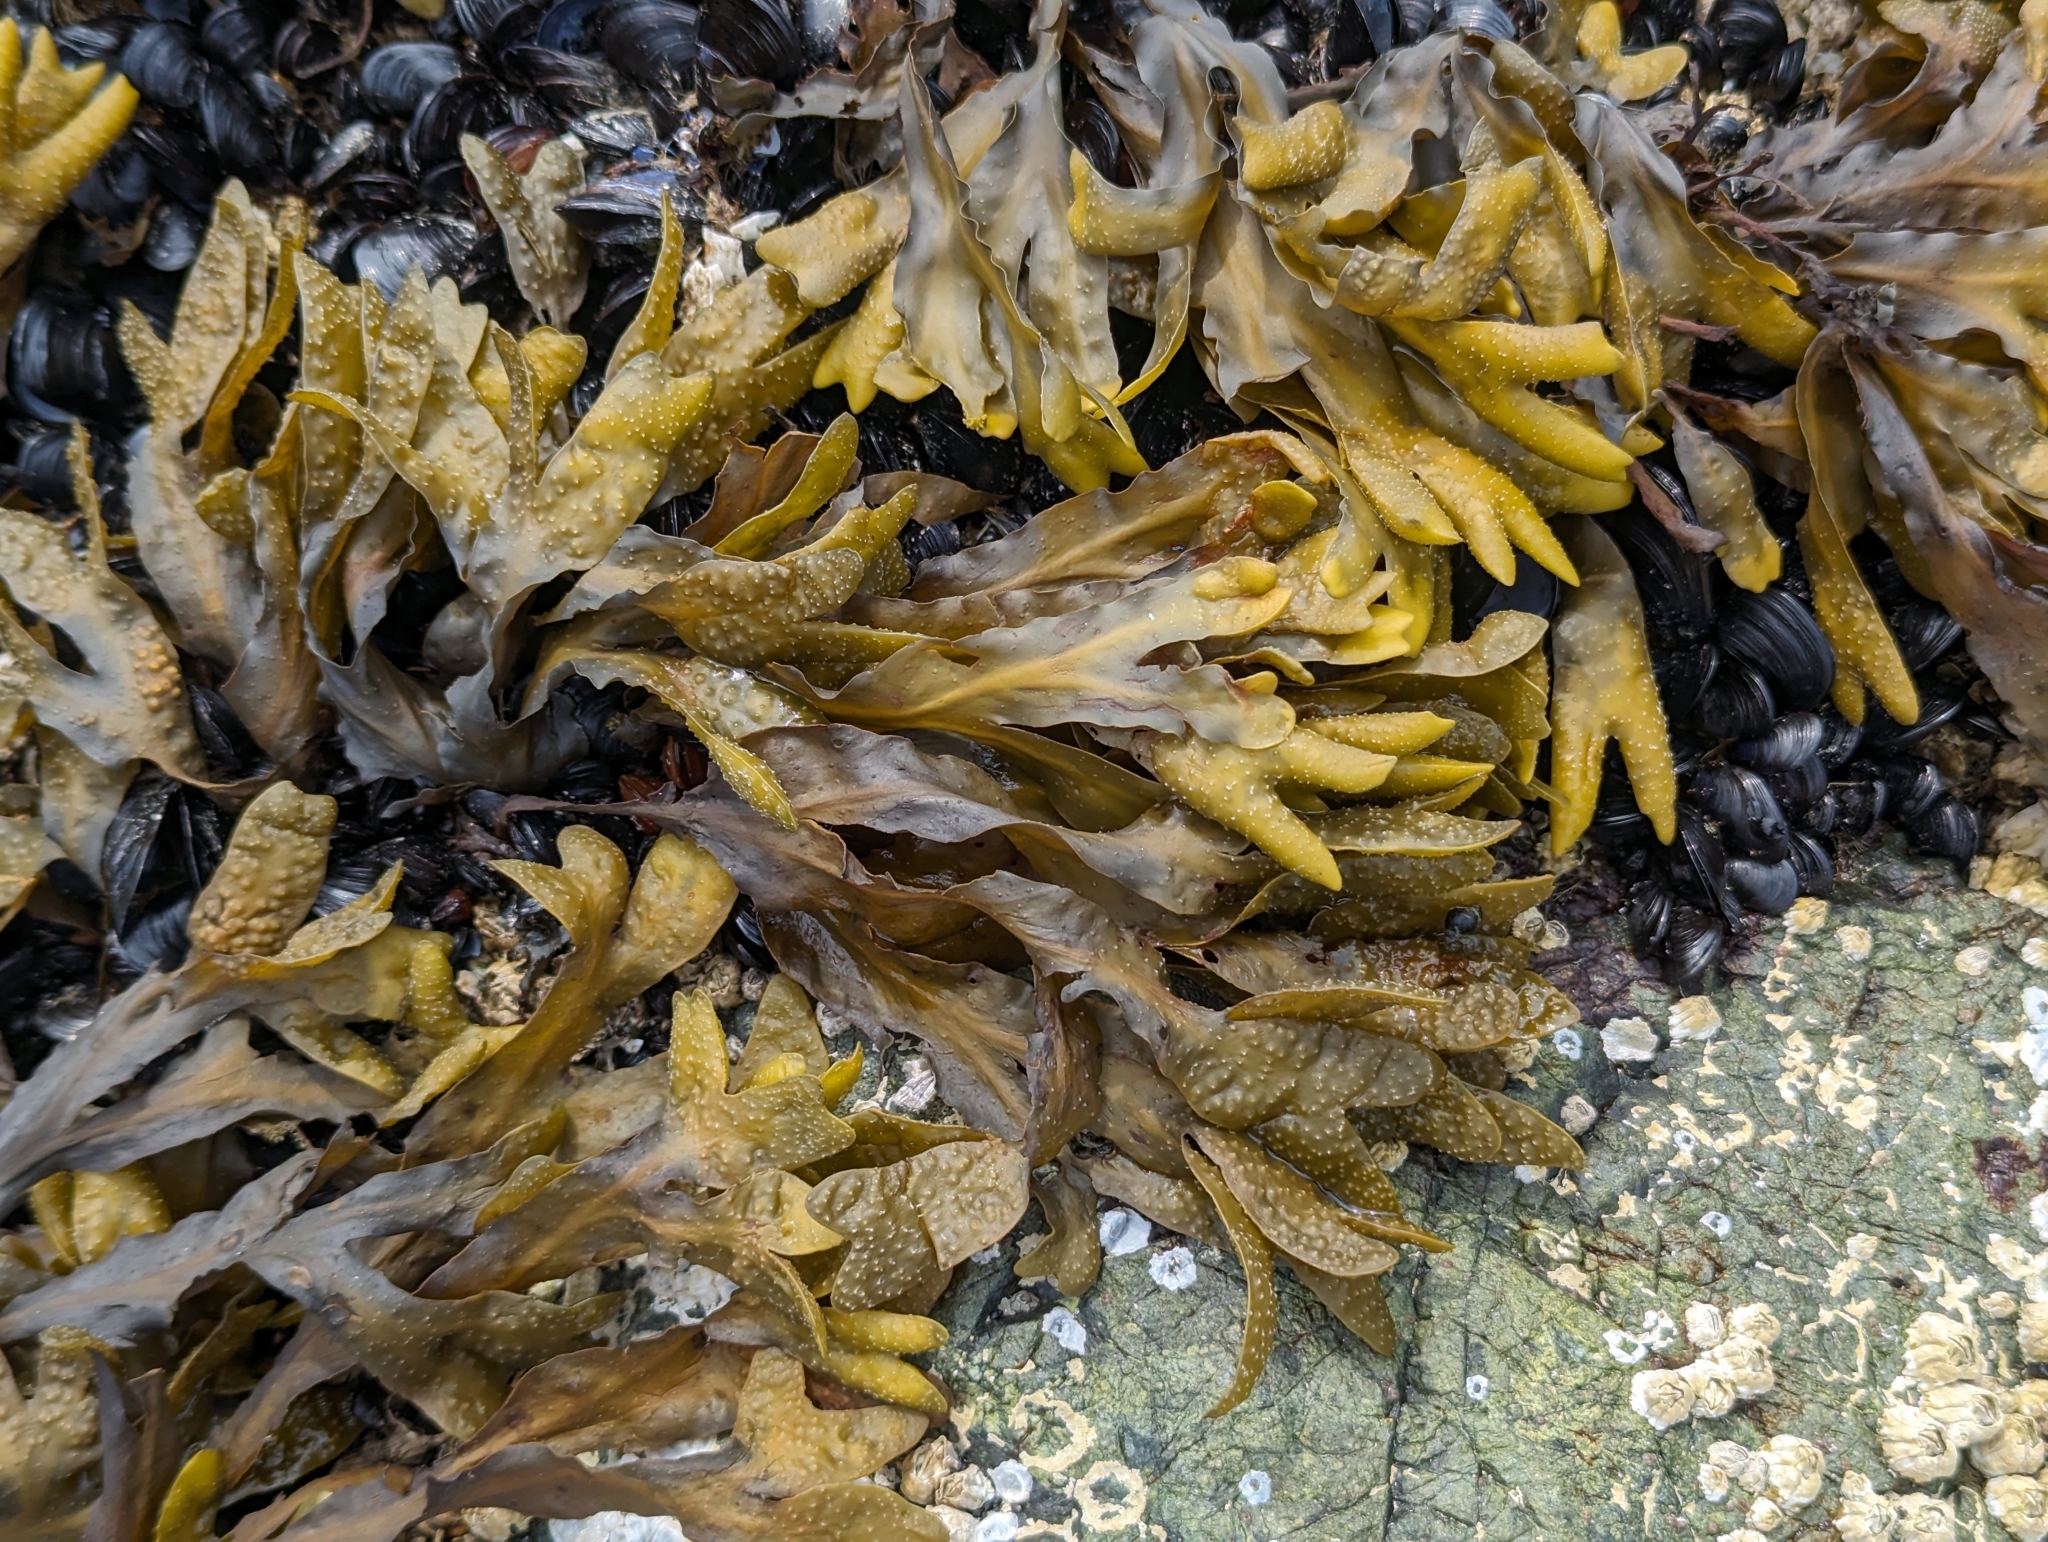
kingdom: Chromista
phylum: Ochrophyta
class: Phaeophyceae
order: Fucales
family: Fucaceae
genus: Fucus
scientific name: Fucus distichus
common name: Rockweed
